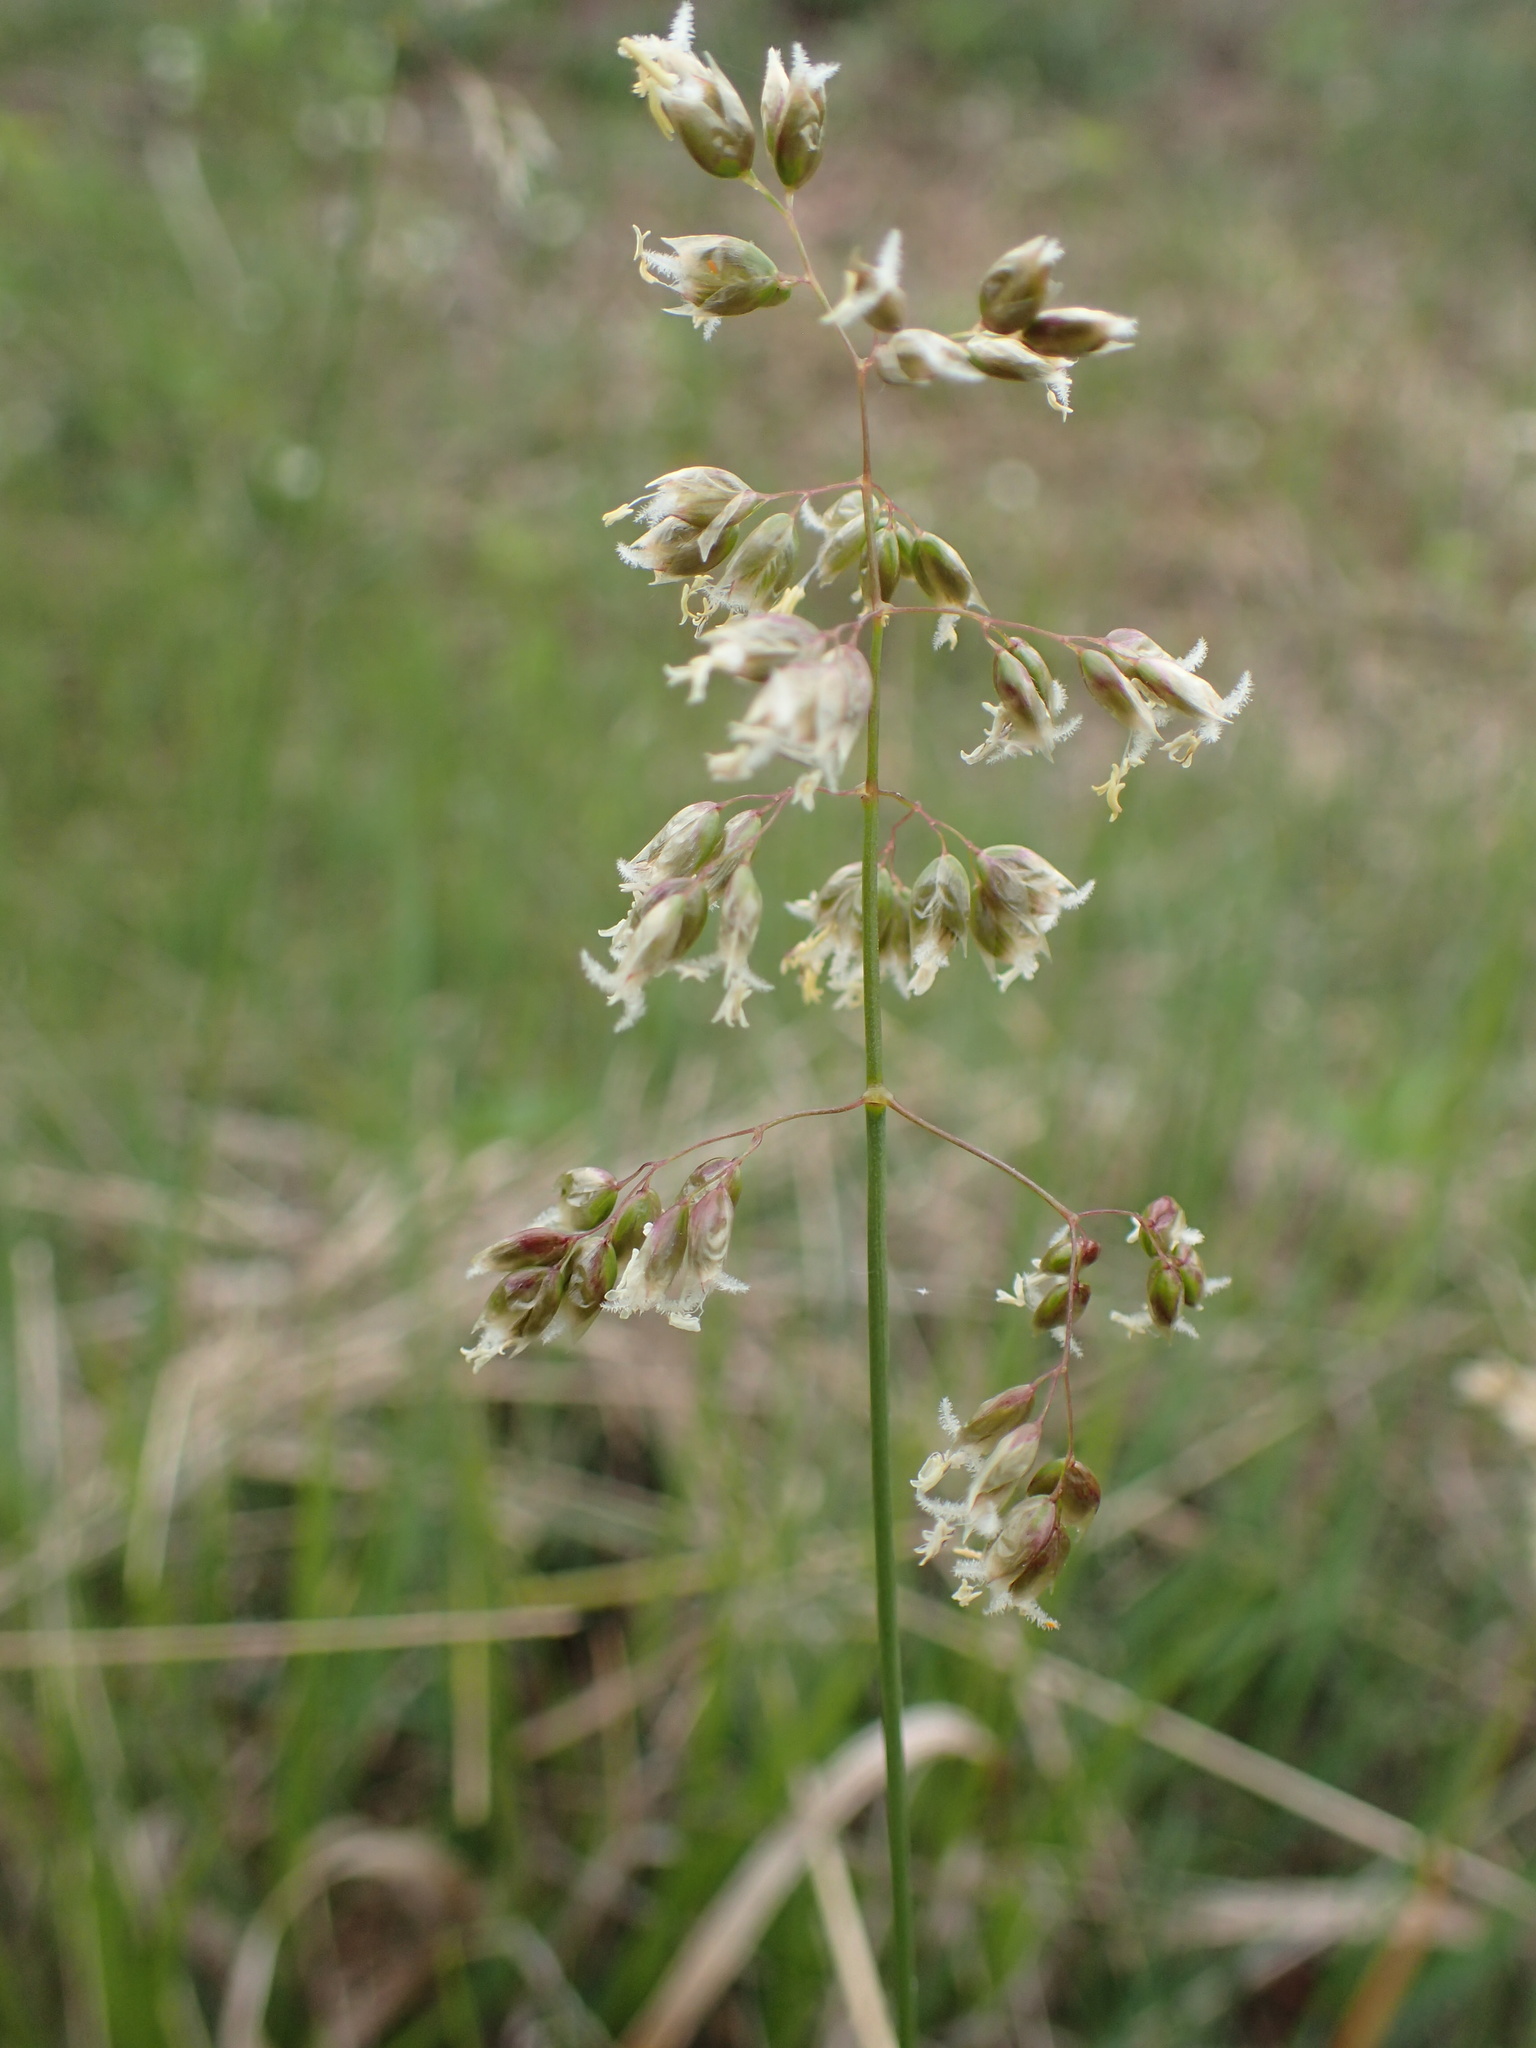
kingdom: Plantae
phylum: Tracheophyta
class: Liliopsida
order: Poales
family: Poaceae
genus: Anthoxanthum
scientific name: Anthoxanthum nitens
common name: Holy grass
